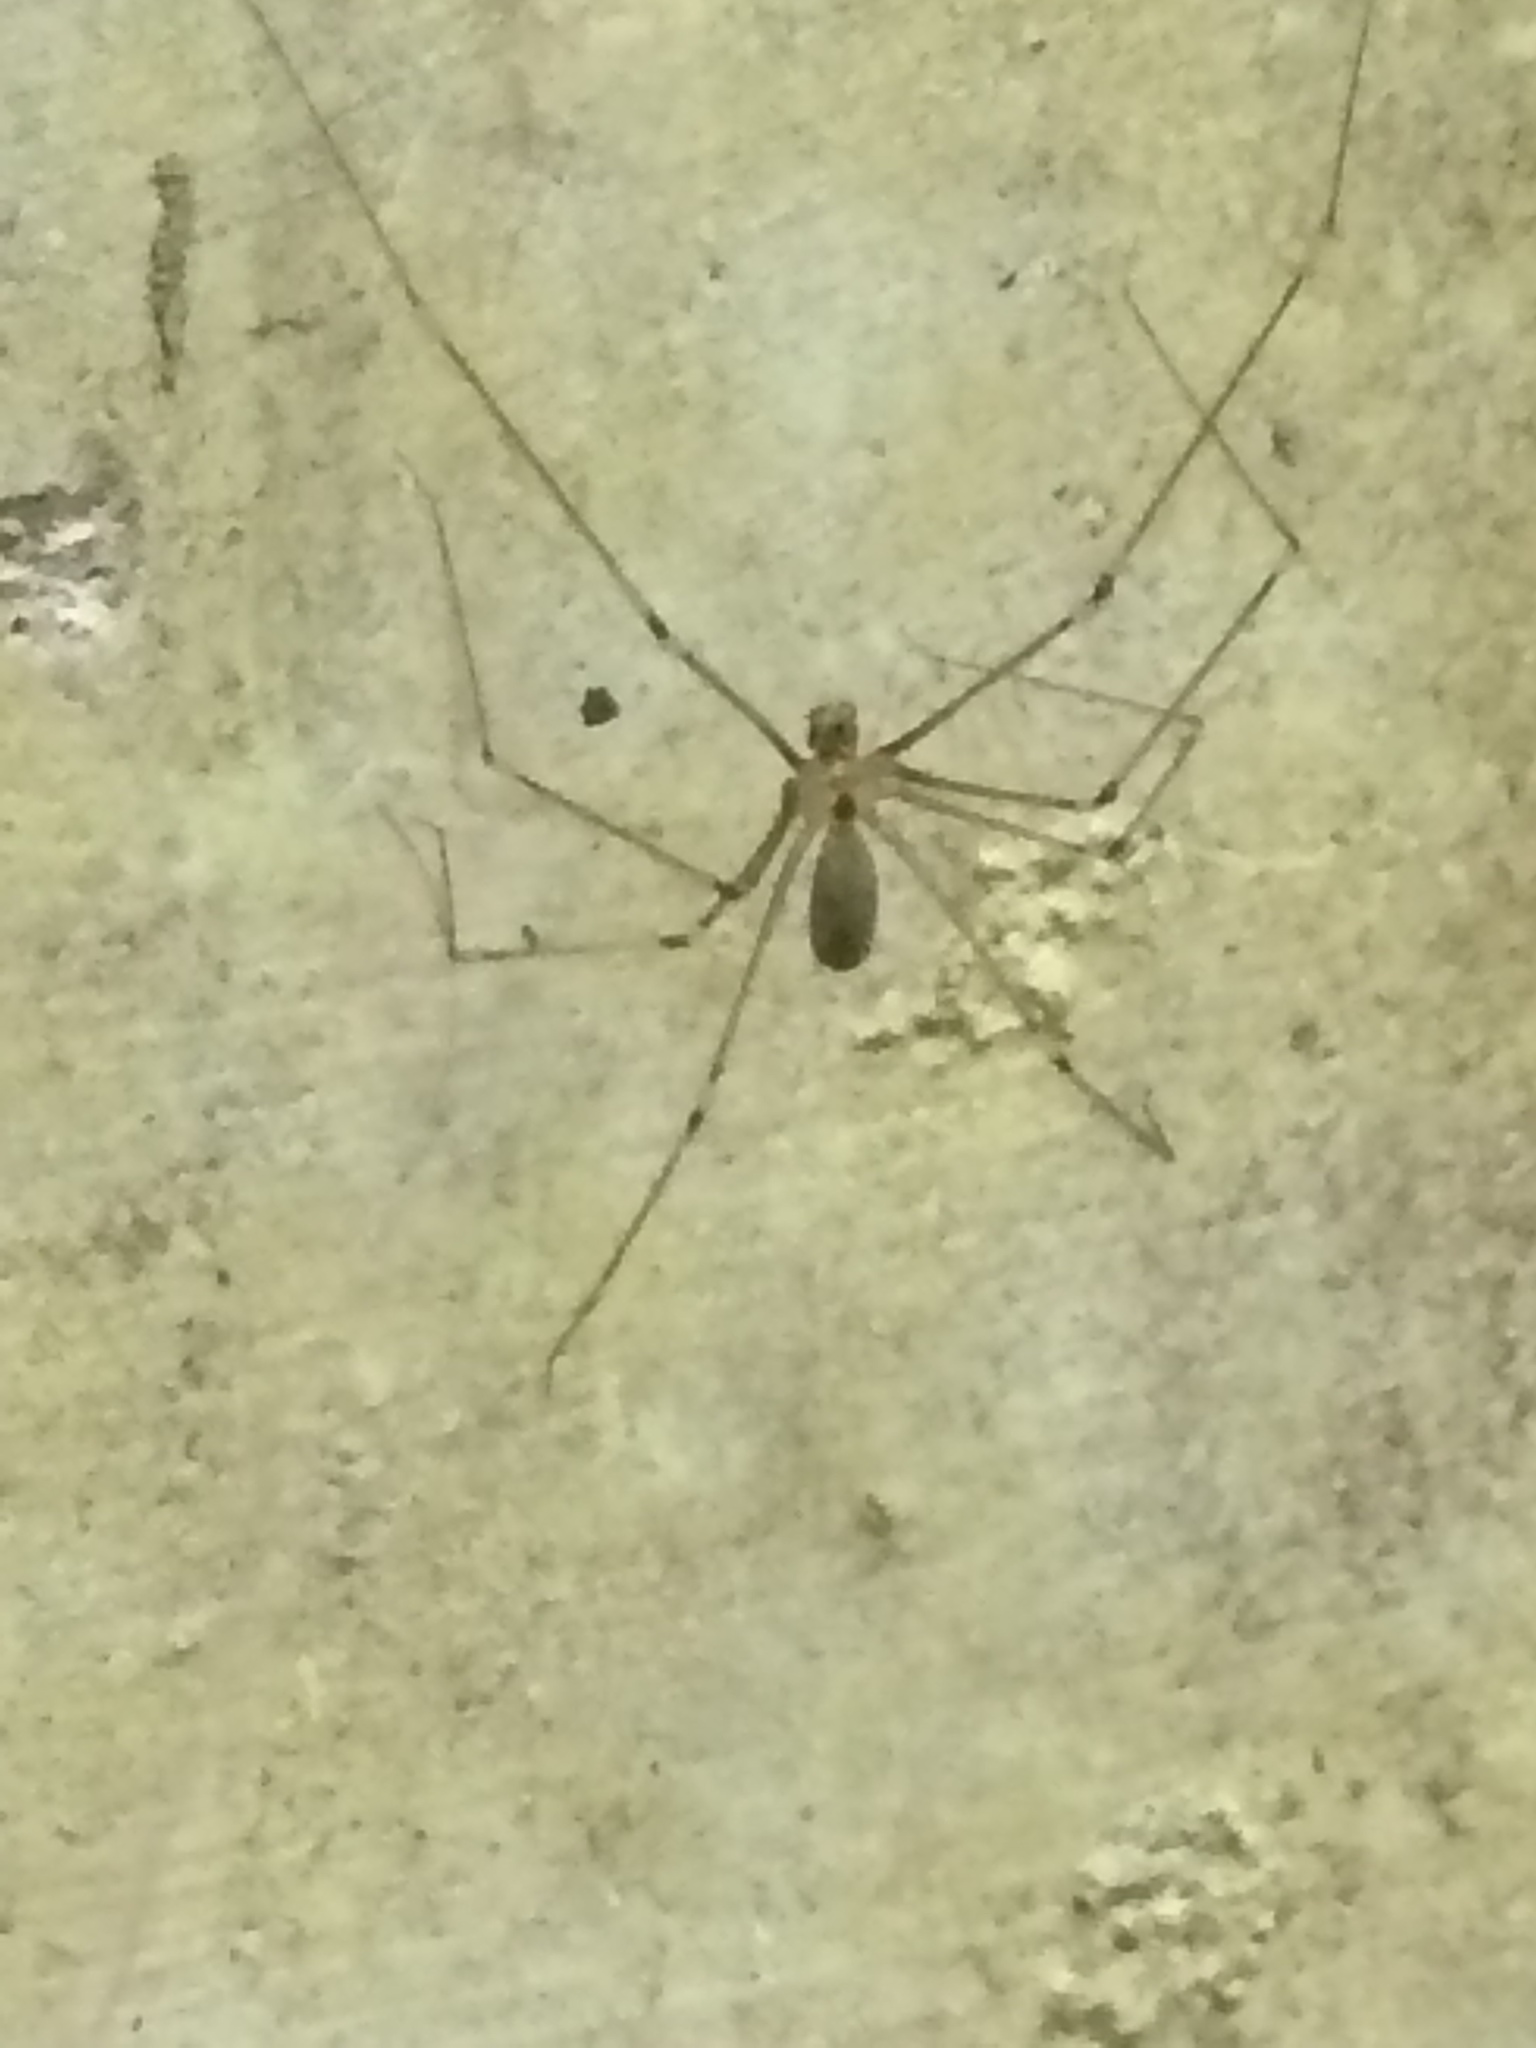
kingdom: Animalia
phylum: Arthropoda
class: Arachnida
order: Araneae
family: Pholcidae
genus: Pholcus
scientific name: Pholcus phalangioides
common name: Longbodied cellar spider
